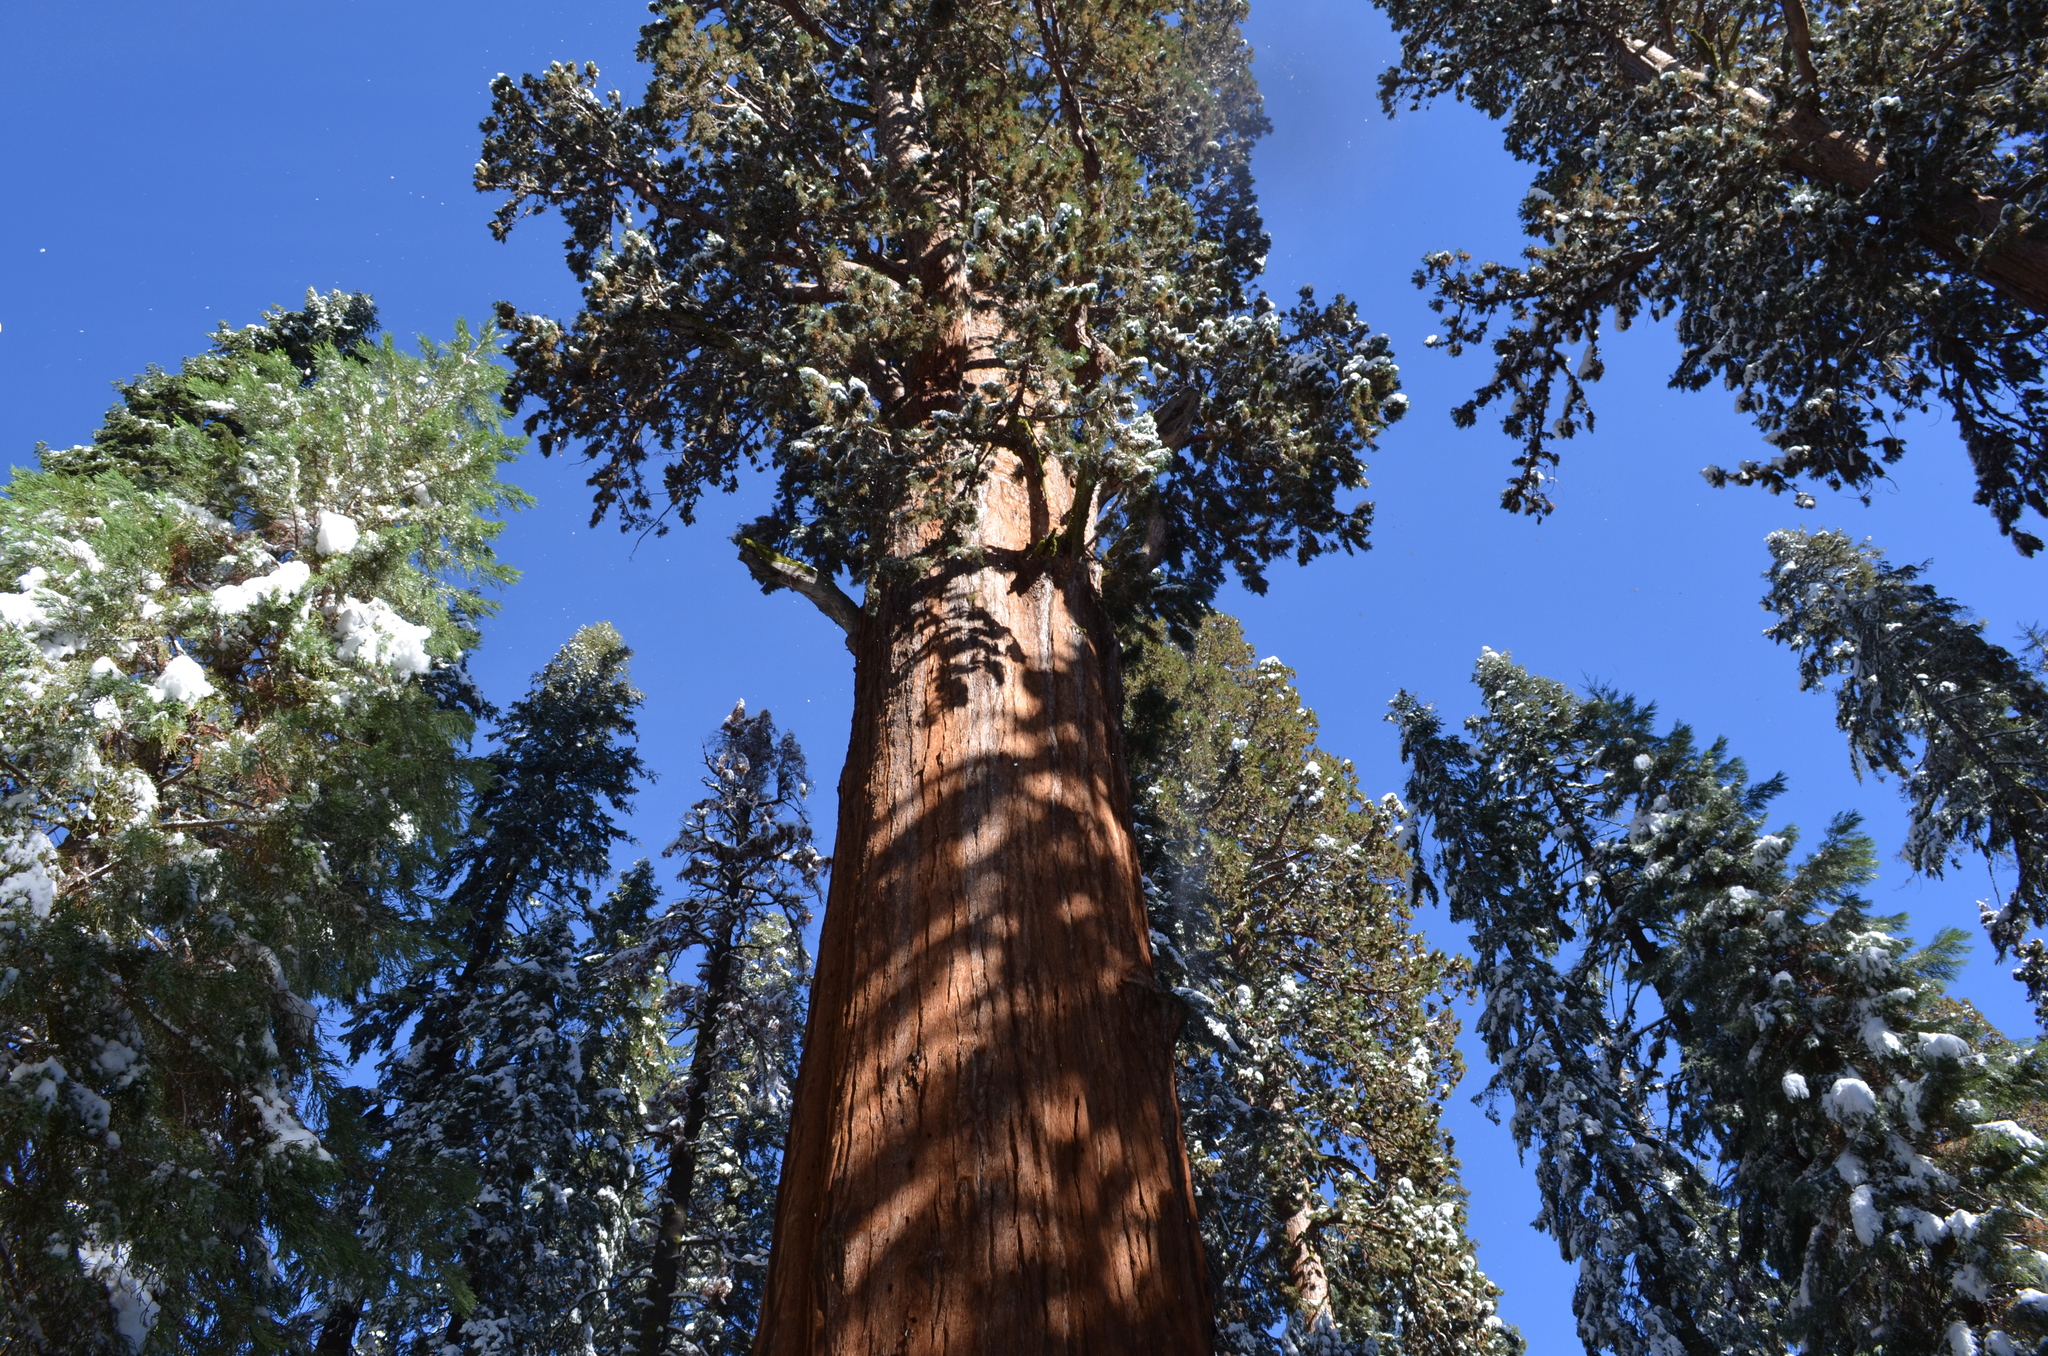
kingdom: Plantae
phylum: Tracheophyta
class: Pinopsida
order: Pinales
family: Cupressaceae
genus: Sequoiadendron
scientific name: Sequoiadendron giganteum
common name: Wellingtonia
